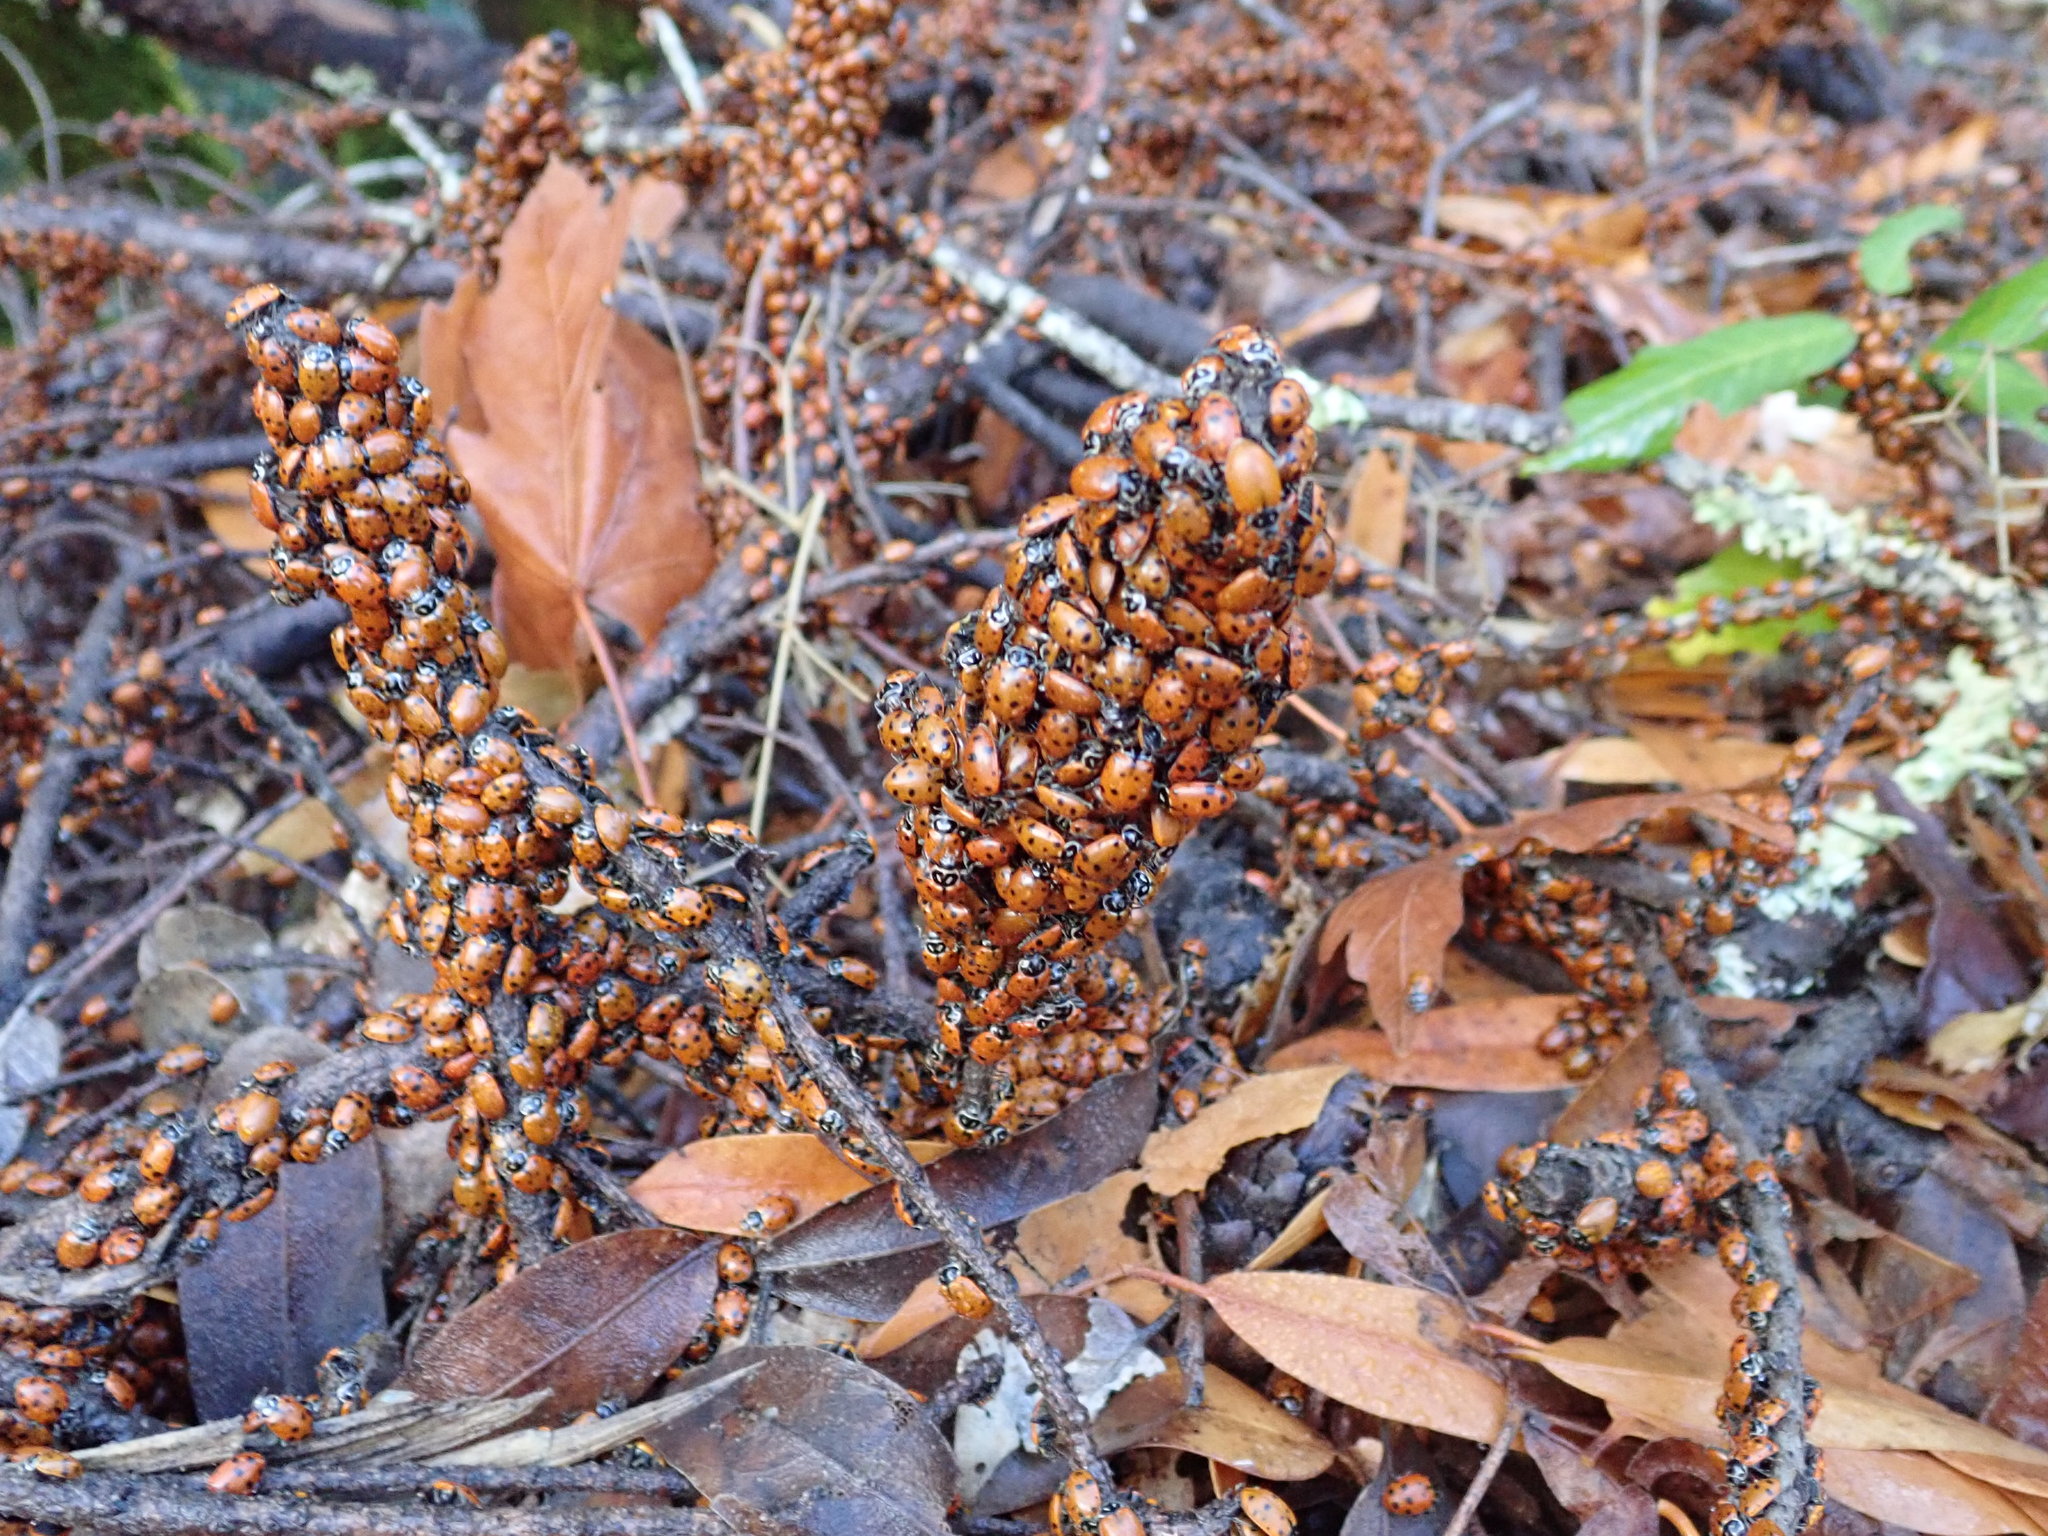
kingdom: Animalia
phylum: Arthropoda
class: Insecta
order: Coleoptera
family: Coccinellidae
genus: Hippodamia
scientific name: Hippodamia convergens
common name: Convergent lady beetle
